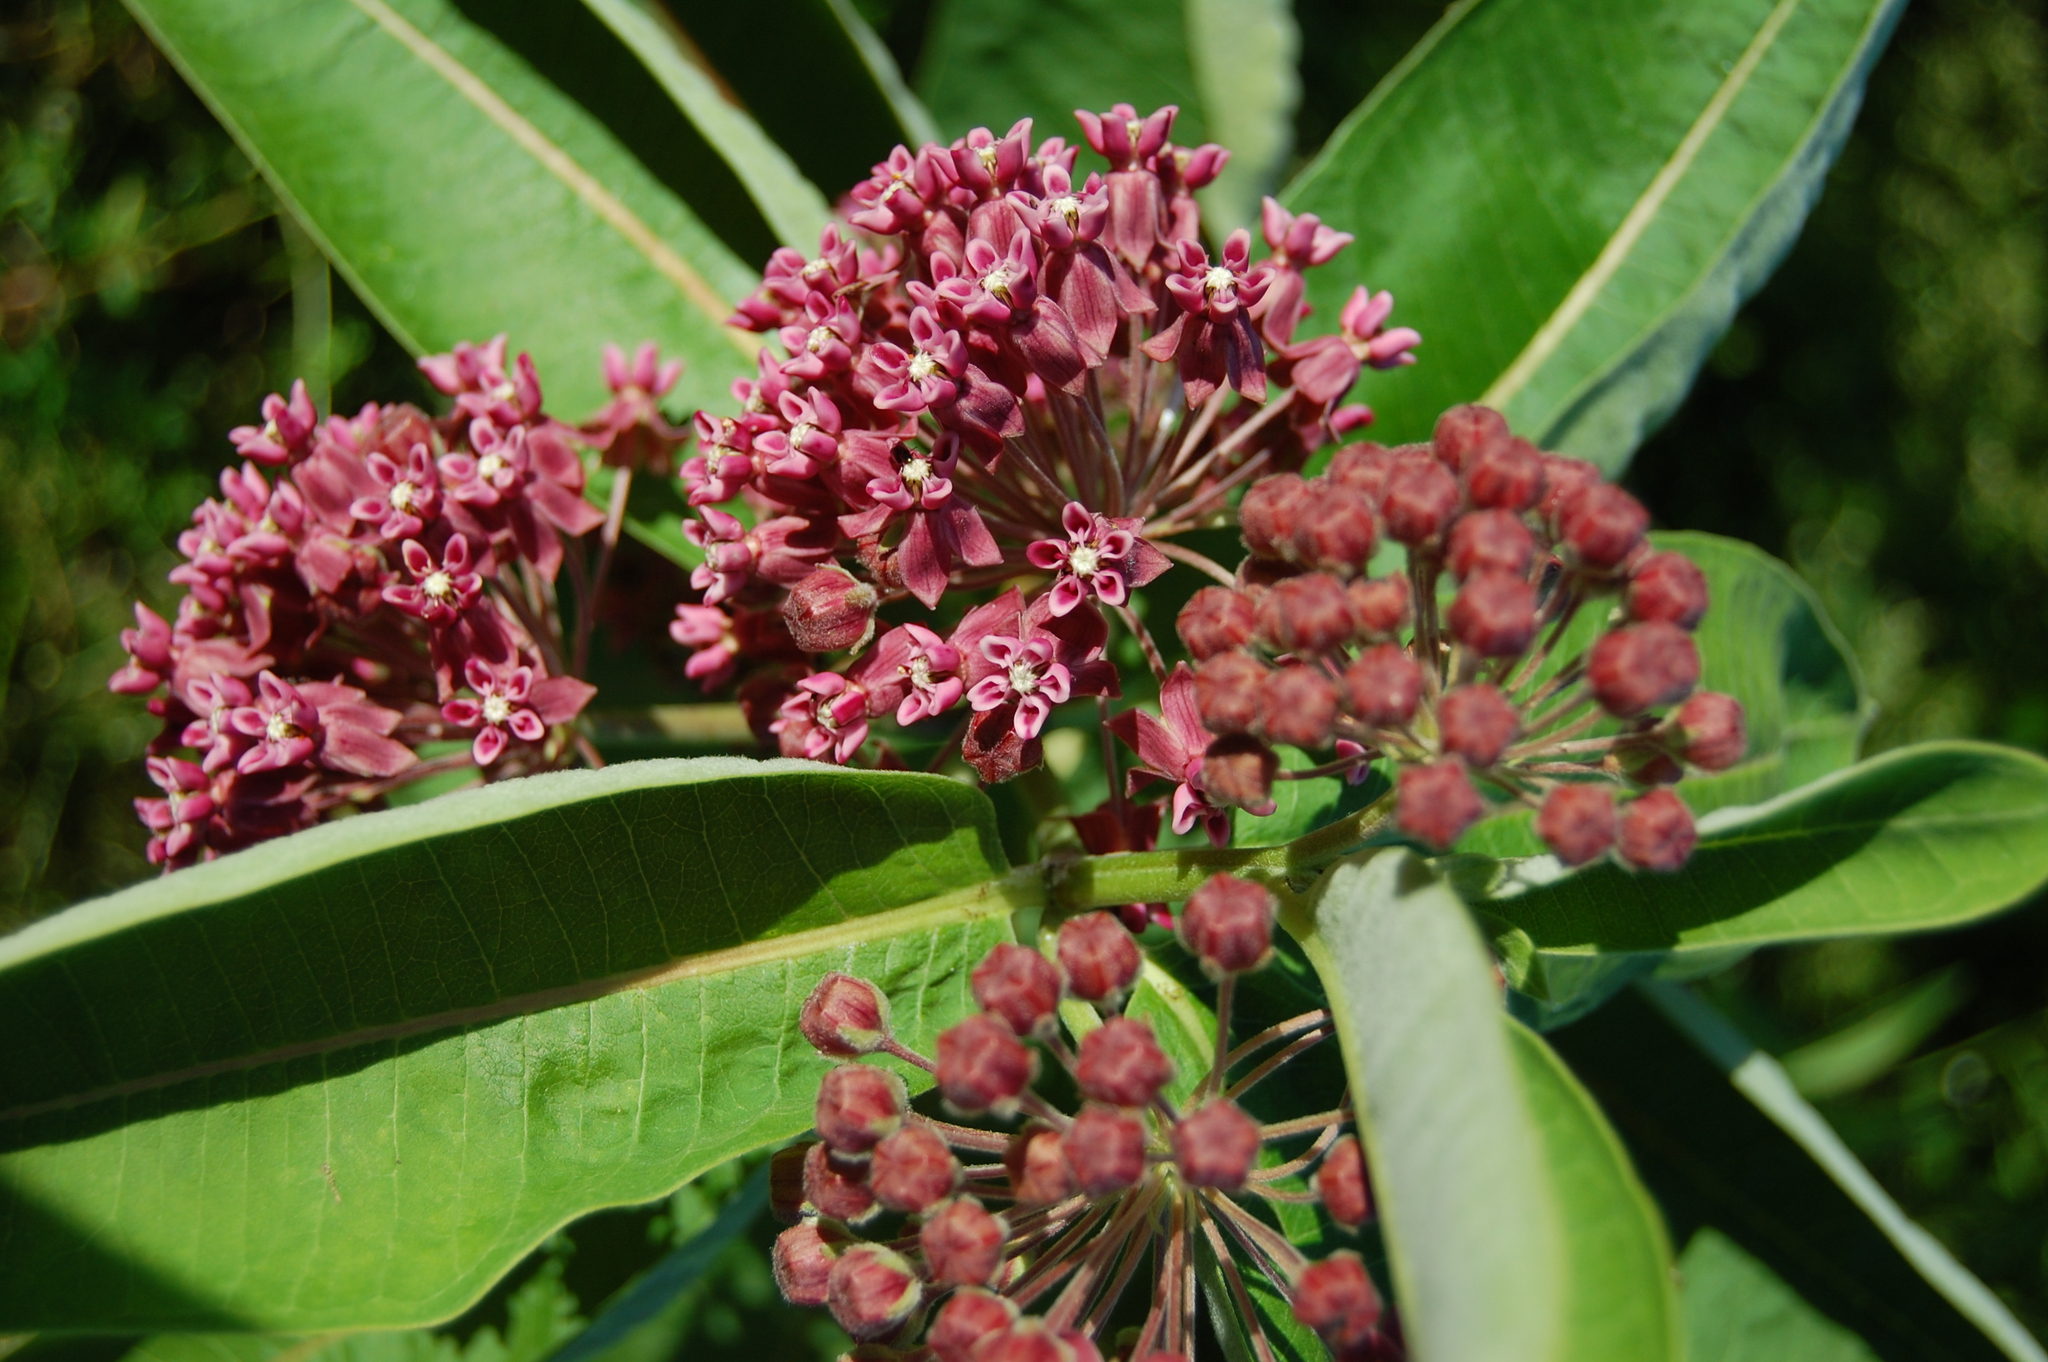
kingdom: Plantae
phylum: Tracheophyta
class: Magnoliopsida
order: Gentianales
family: Apocynaceae
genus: Asclepias
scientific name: Asclepias syriaca
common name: Common milkweed
